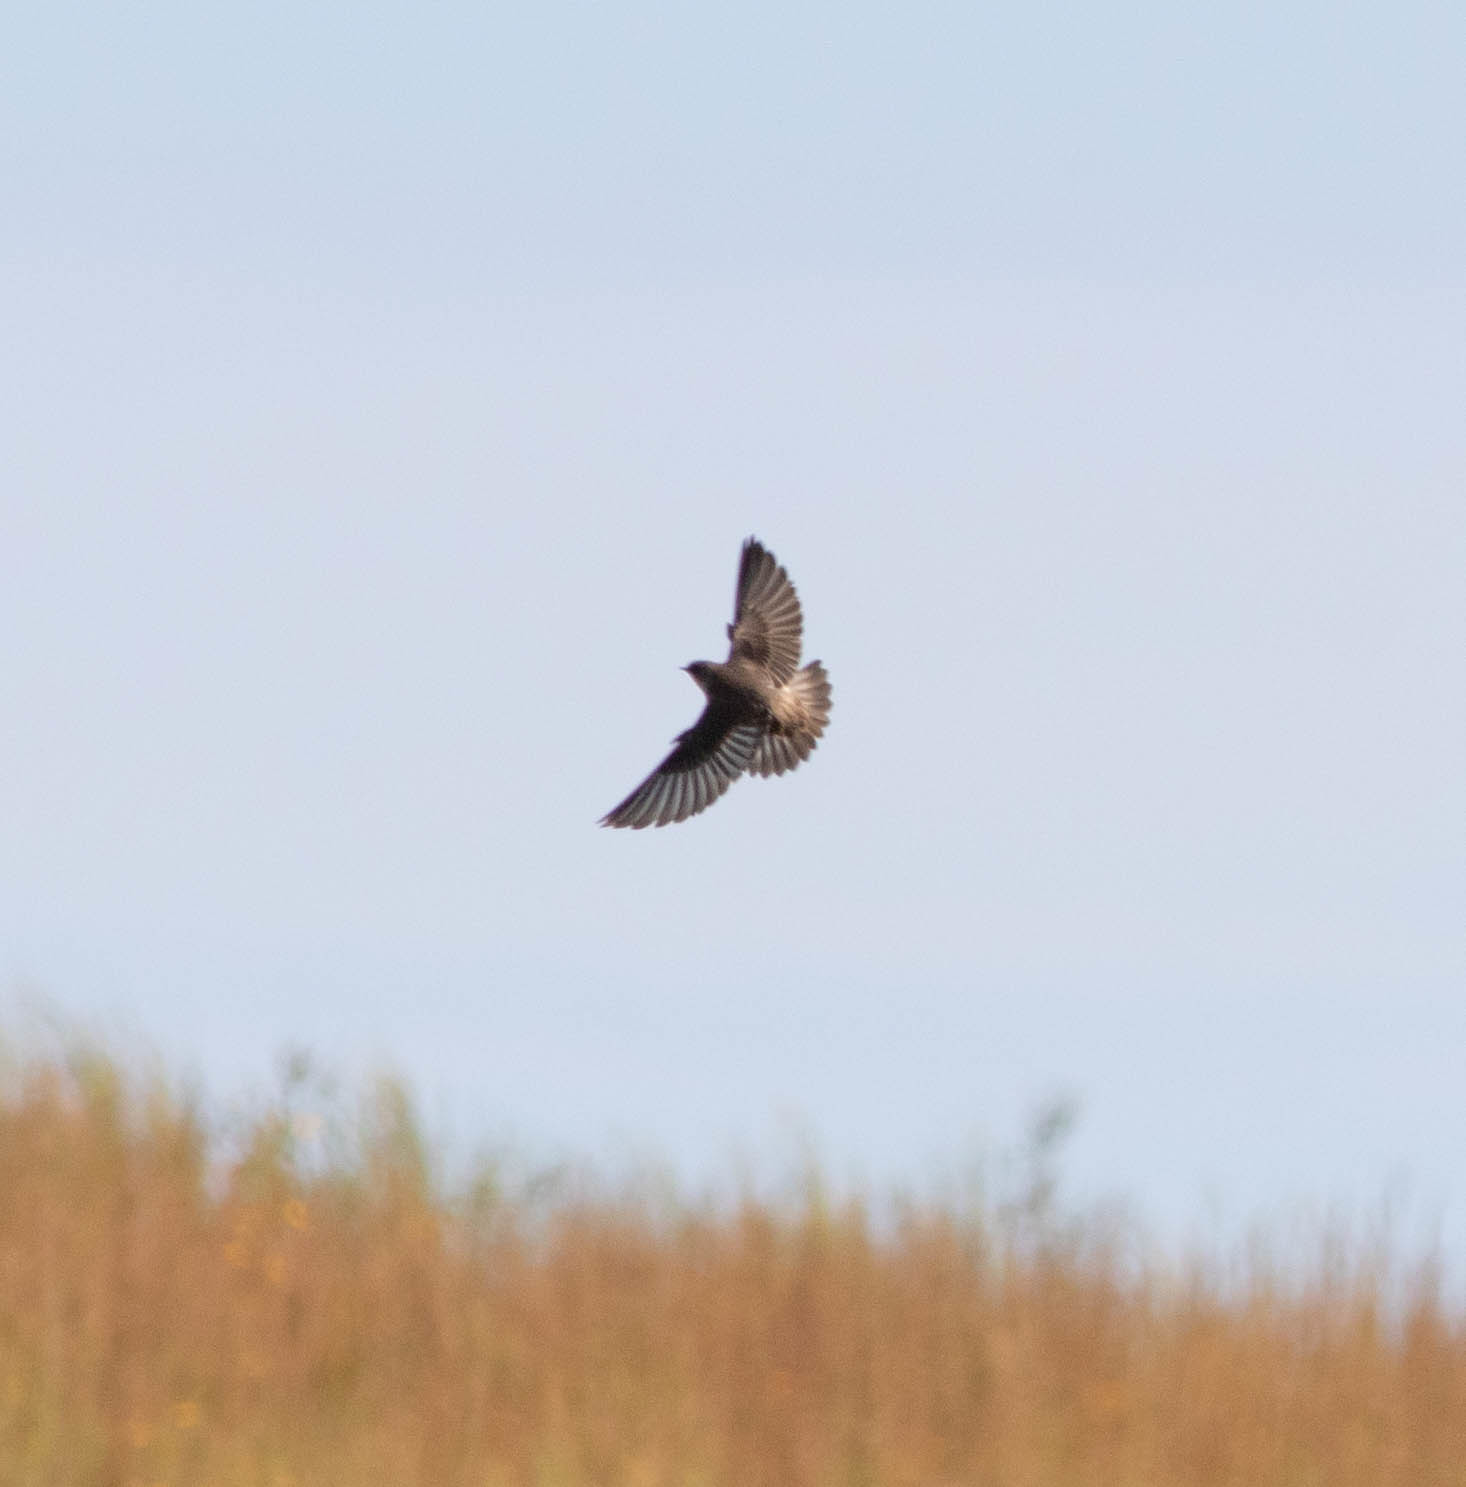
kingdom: Animalia
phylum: Chordata
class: Aves
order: Passeriformes
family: Hirundinidae
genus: Stelgidopteryx
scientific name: Stelgidopteryx serripennis
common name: Northern rough-winged swallow
